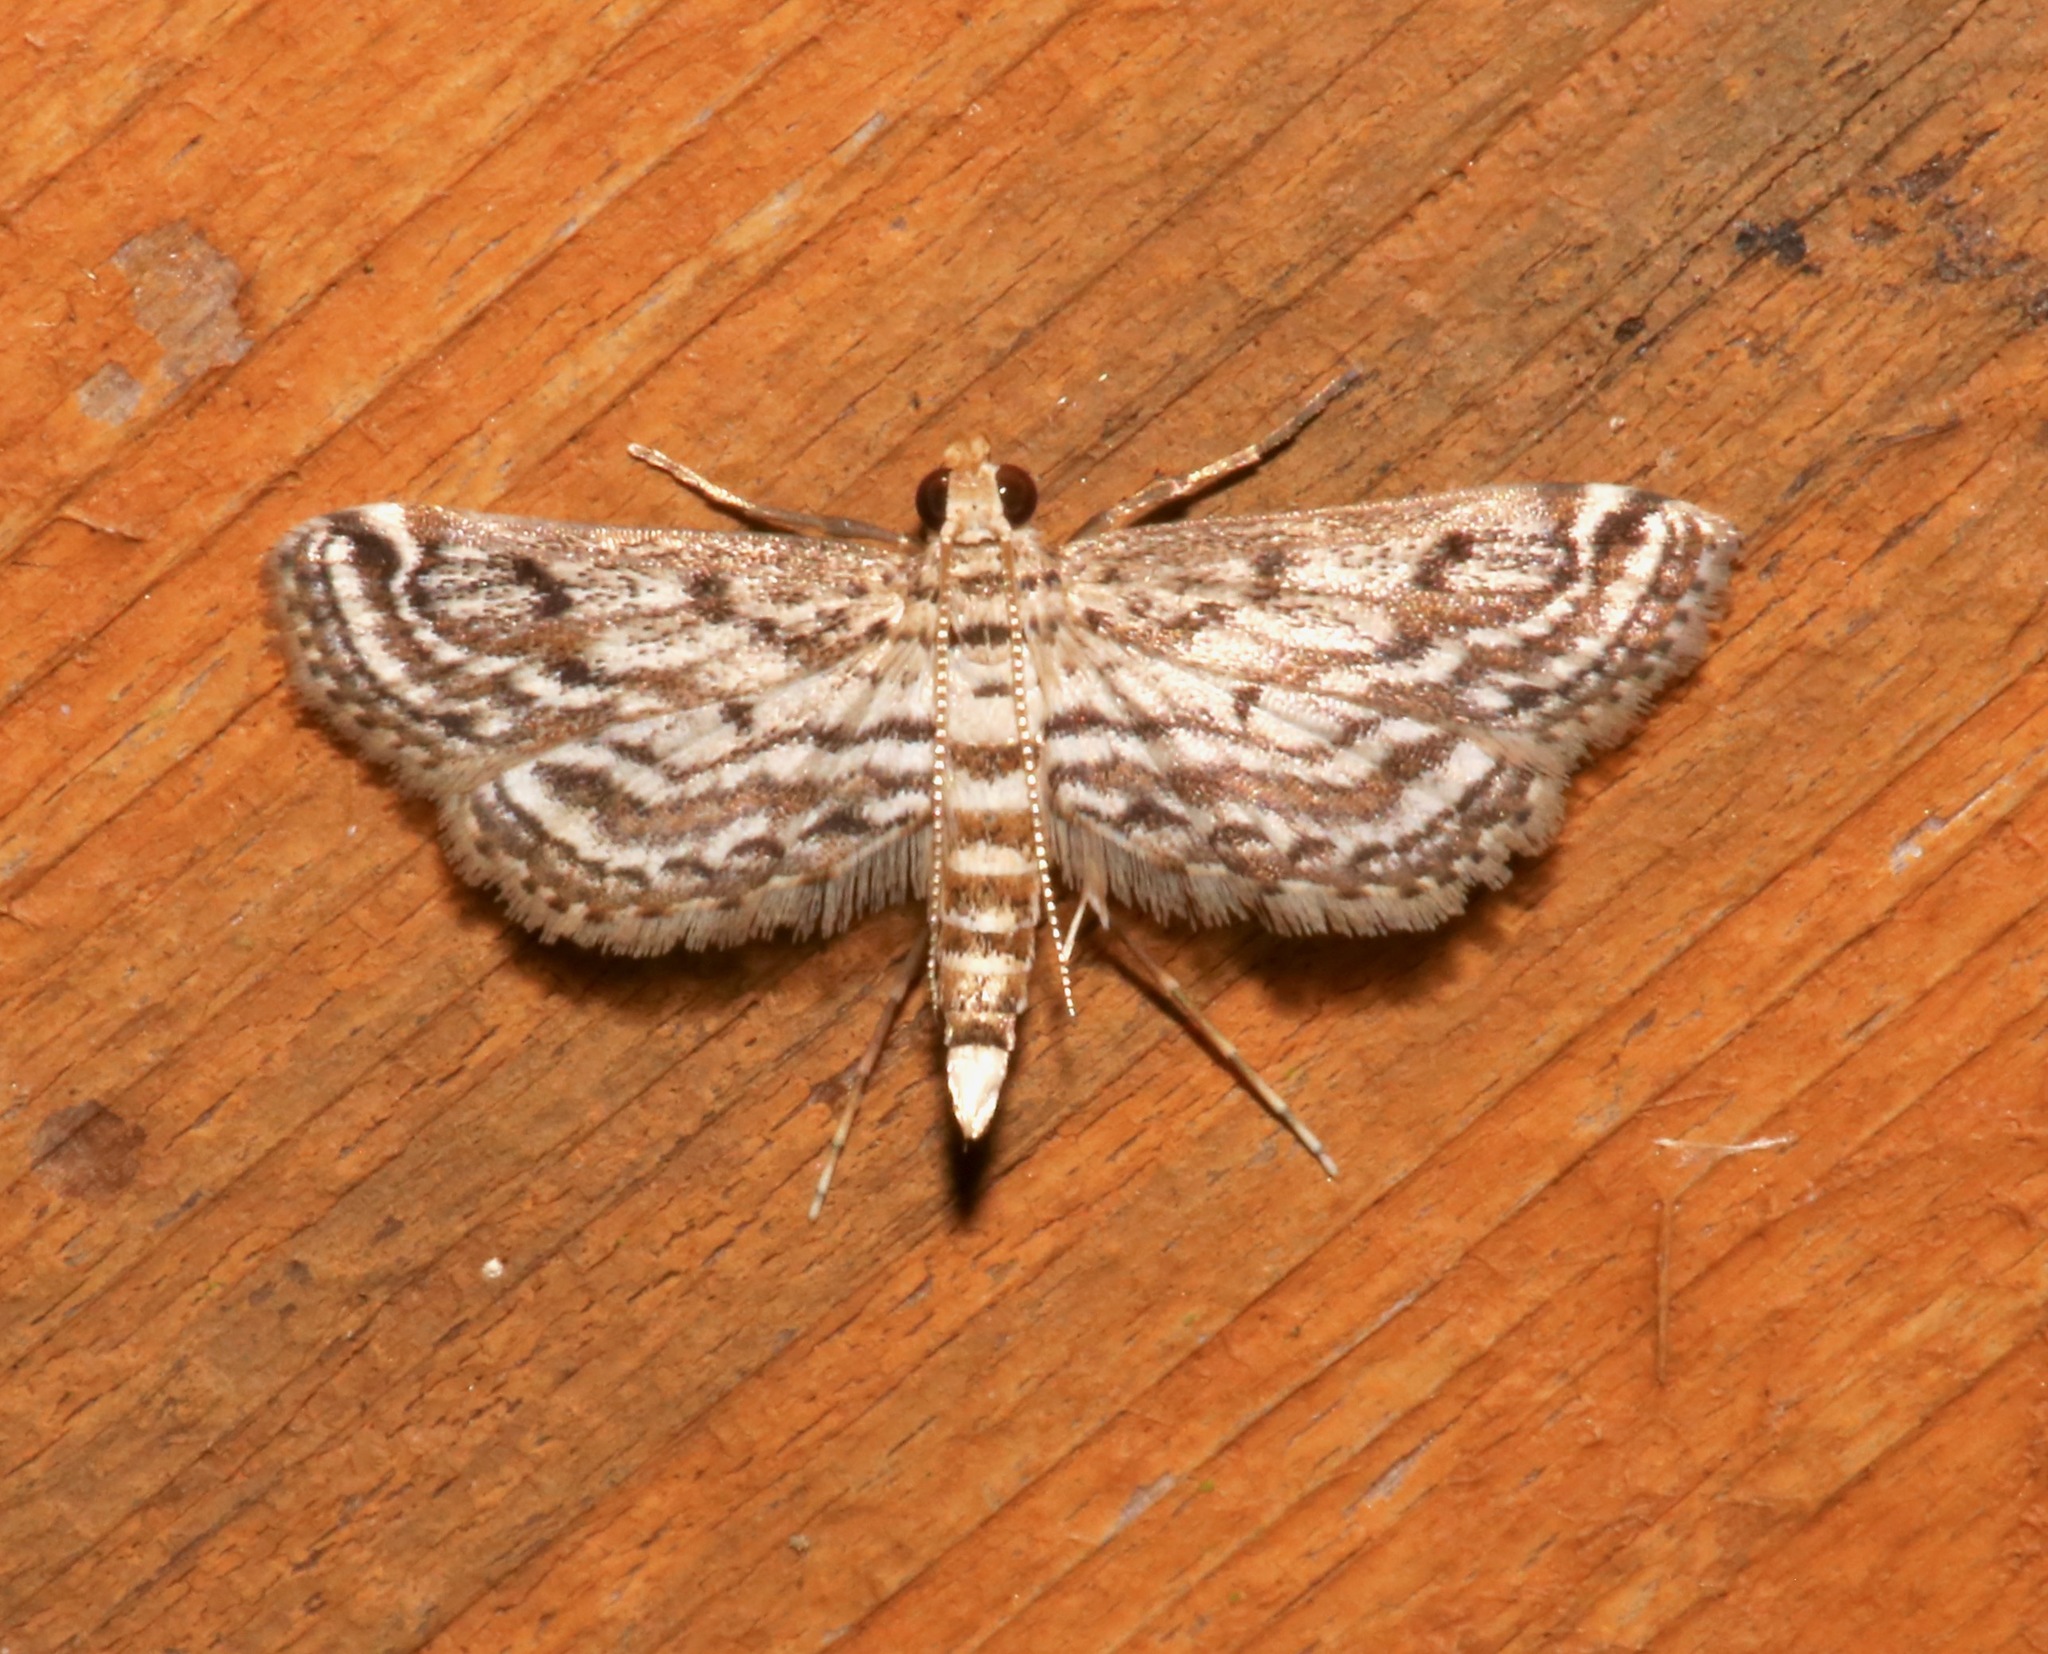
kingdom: Animalia
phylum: Arthropoda
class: Insecta
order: Lepidoptera
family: Crambidae
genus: Parapoynx
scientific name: Parapoynx allionealis
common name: Bladderwort casemaker
